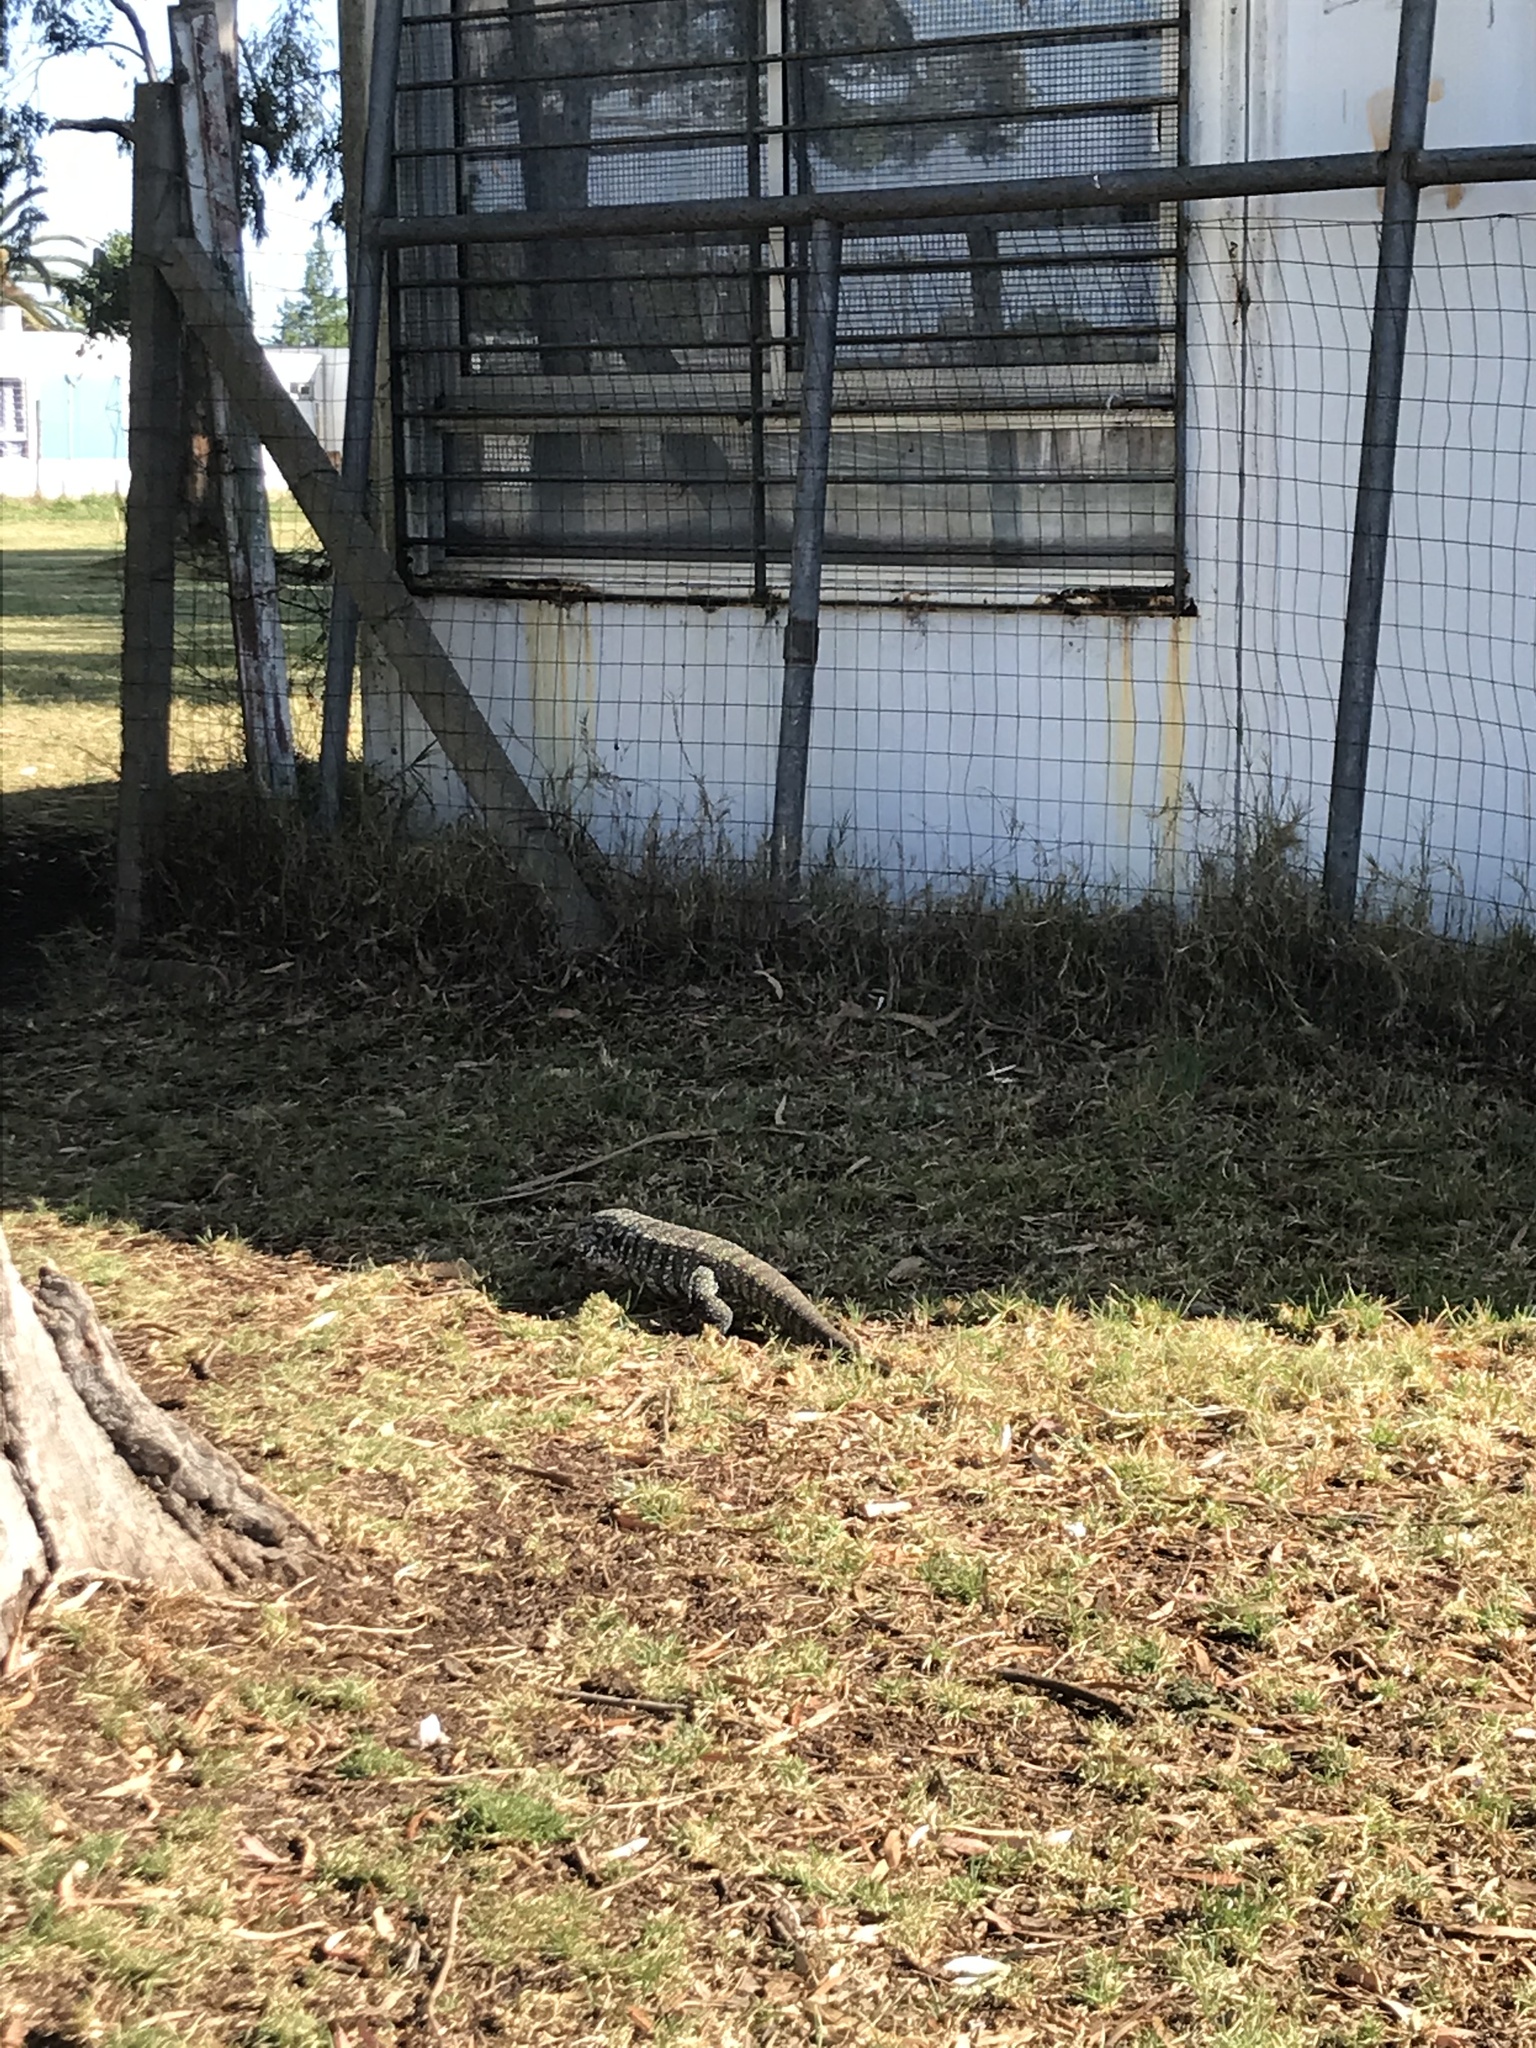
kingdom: Animalia
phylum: Chordata
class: Squamata
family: Teiidae
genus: Salvator
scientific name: Salvator merianae
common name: Argentine black and white tegu
